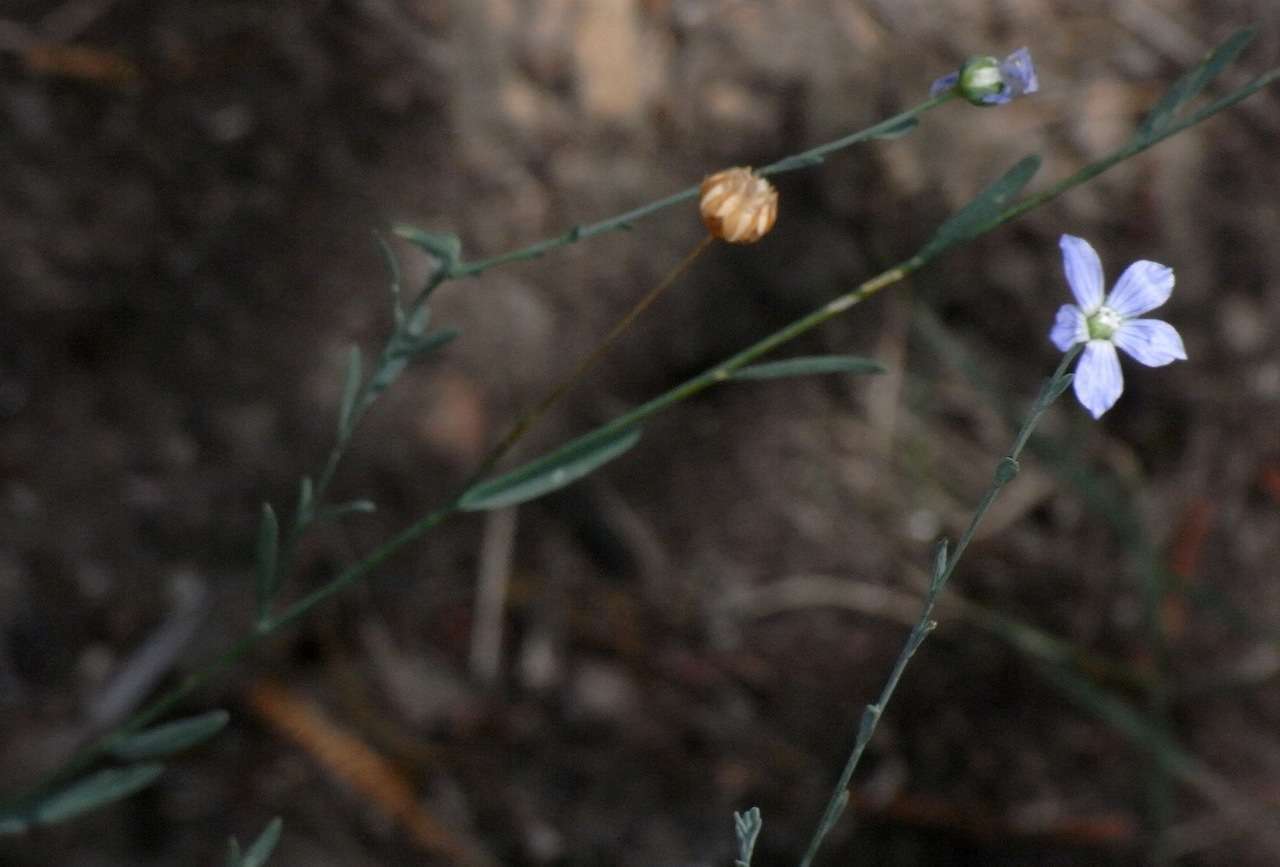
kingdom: Plantae
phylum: Tracheophyta
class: Magnoliopsida
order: Malpighiales
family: Linaceae
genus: Linum
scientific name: Linum marginale
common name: Wild flax
